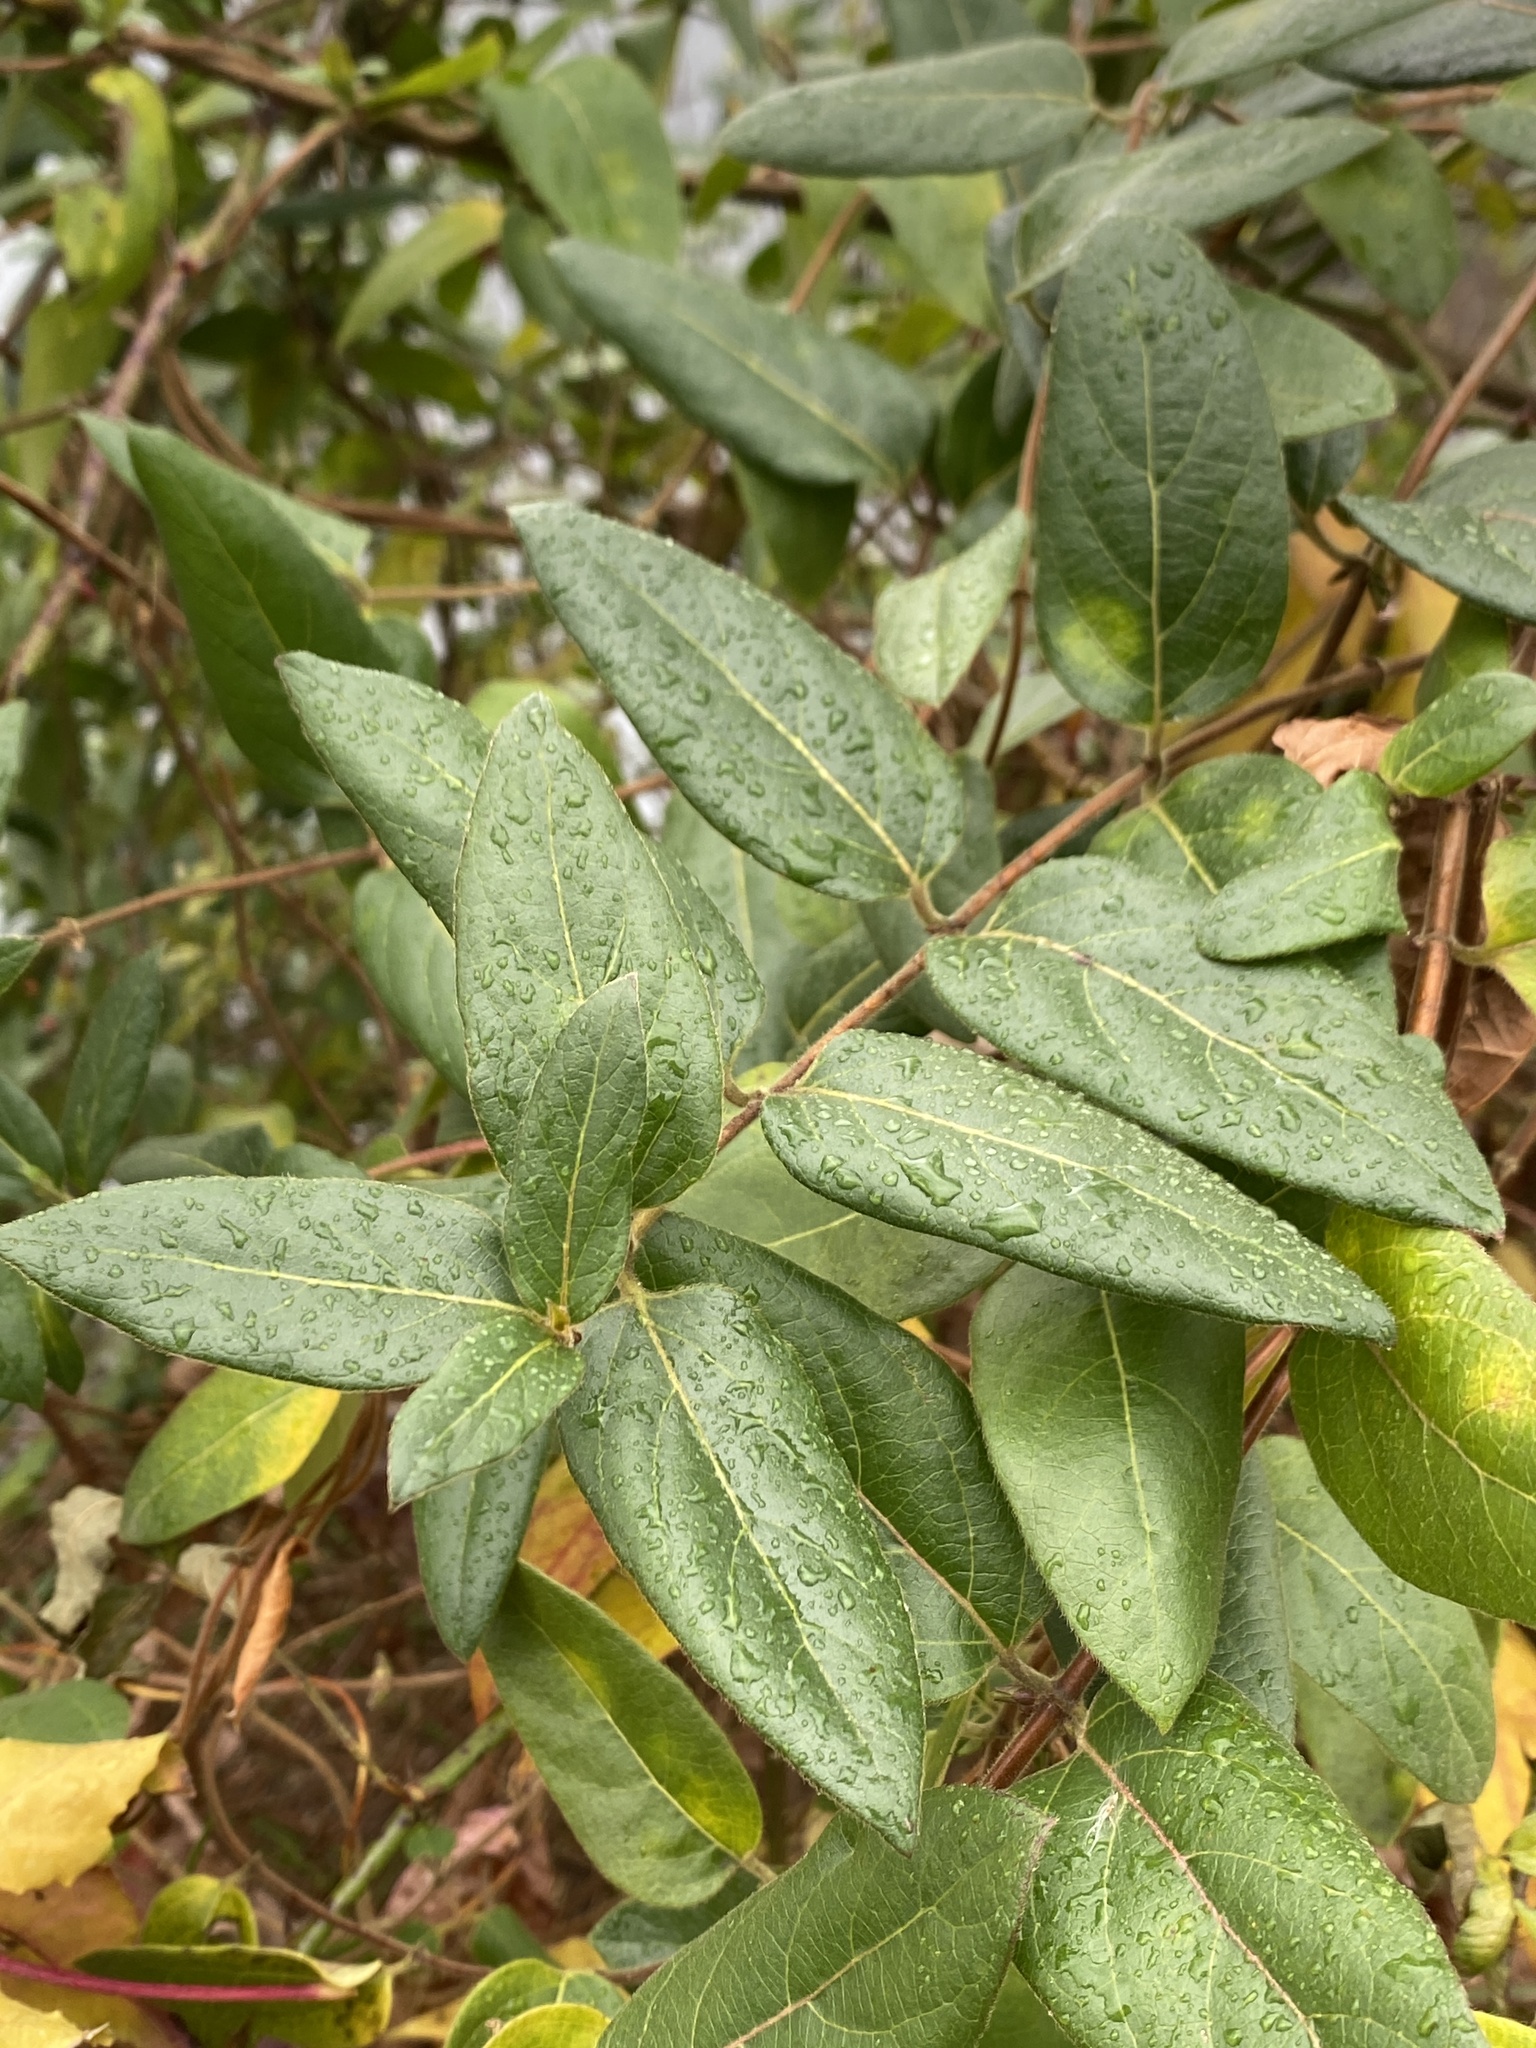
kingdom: Plantae
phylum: Tracheophyta
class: Magnoliopsida
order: Dipsacales
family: Caprifoliaceae
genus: Lonicera
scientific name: Lonicera japonica
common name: Japanese honeysuckle
